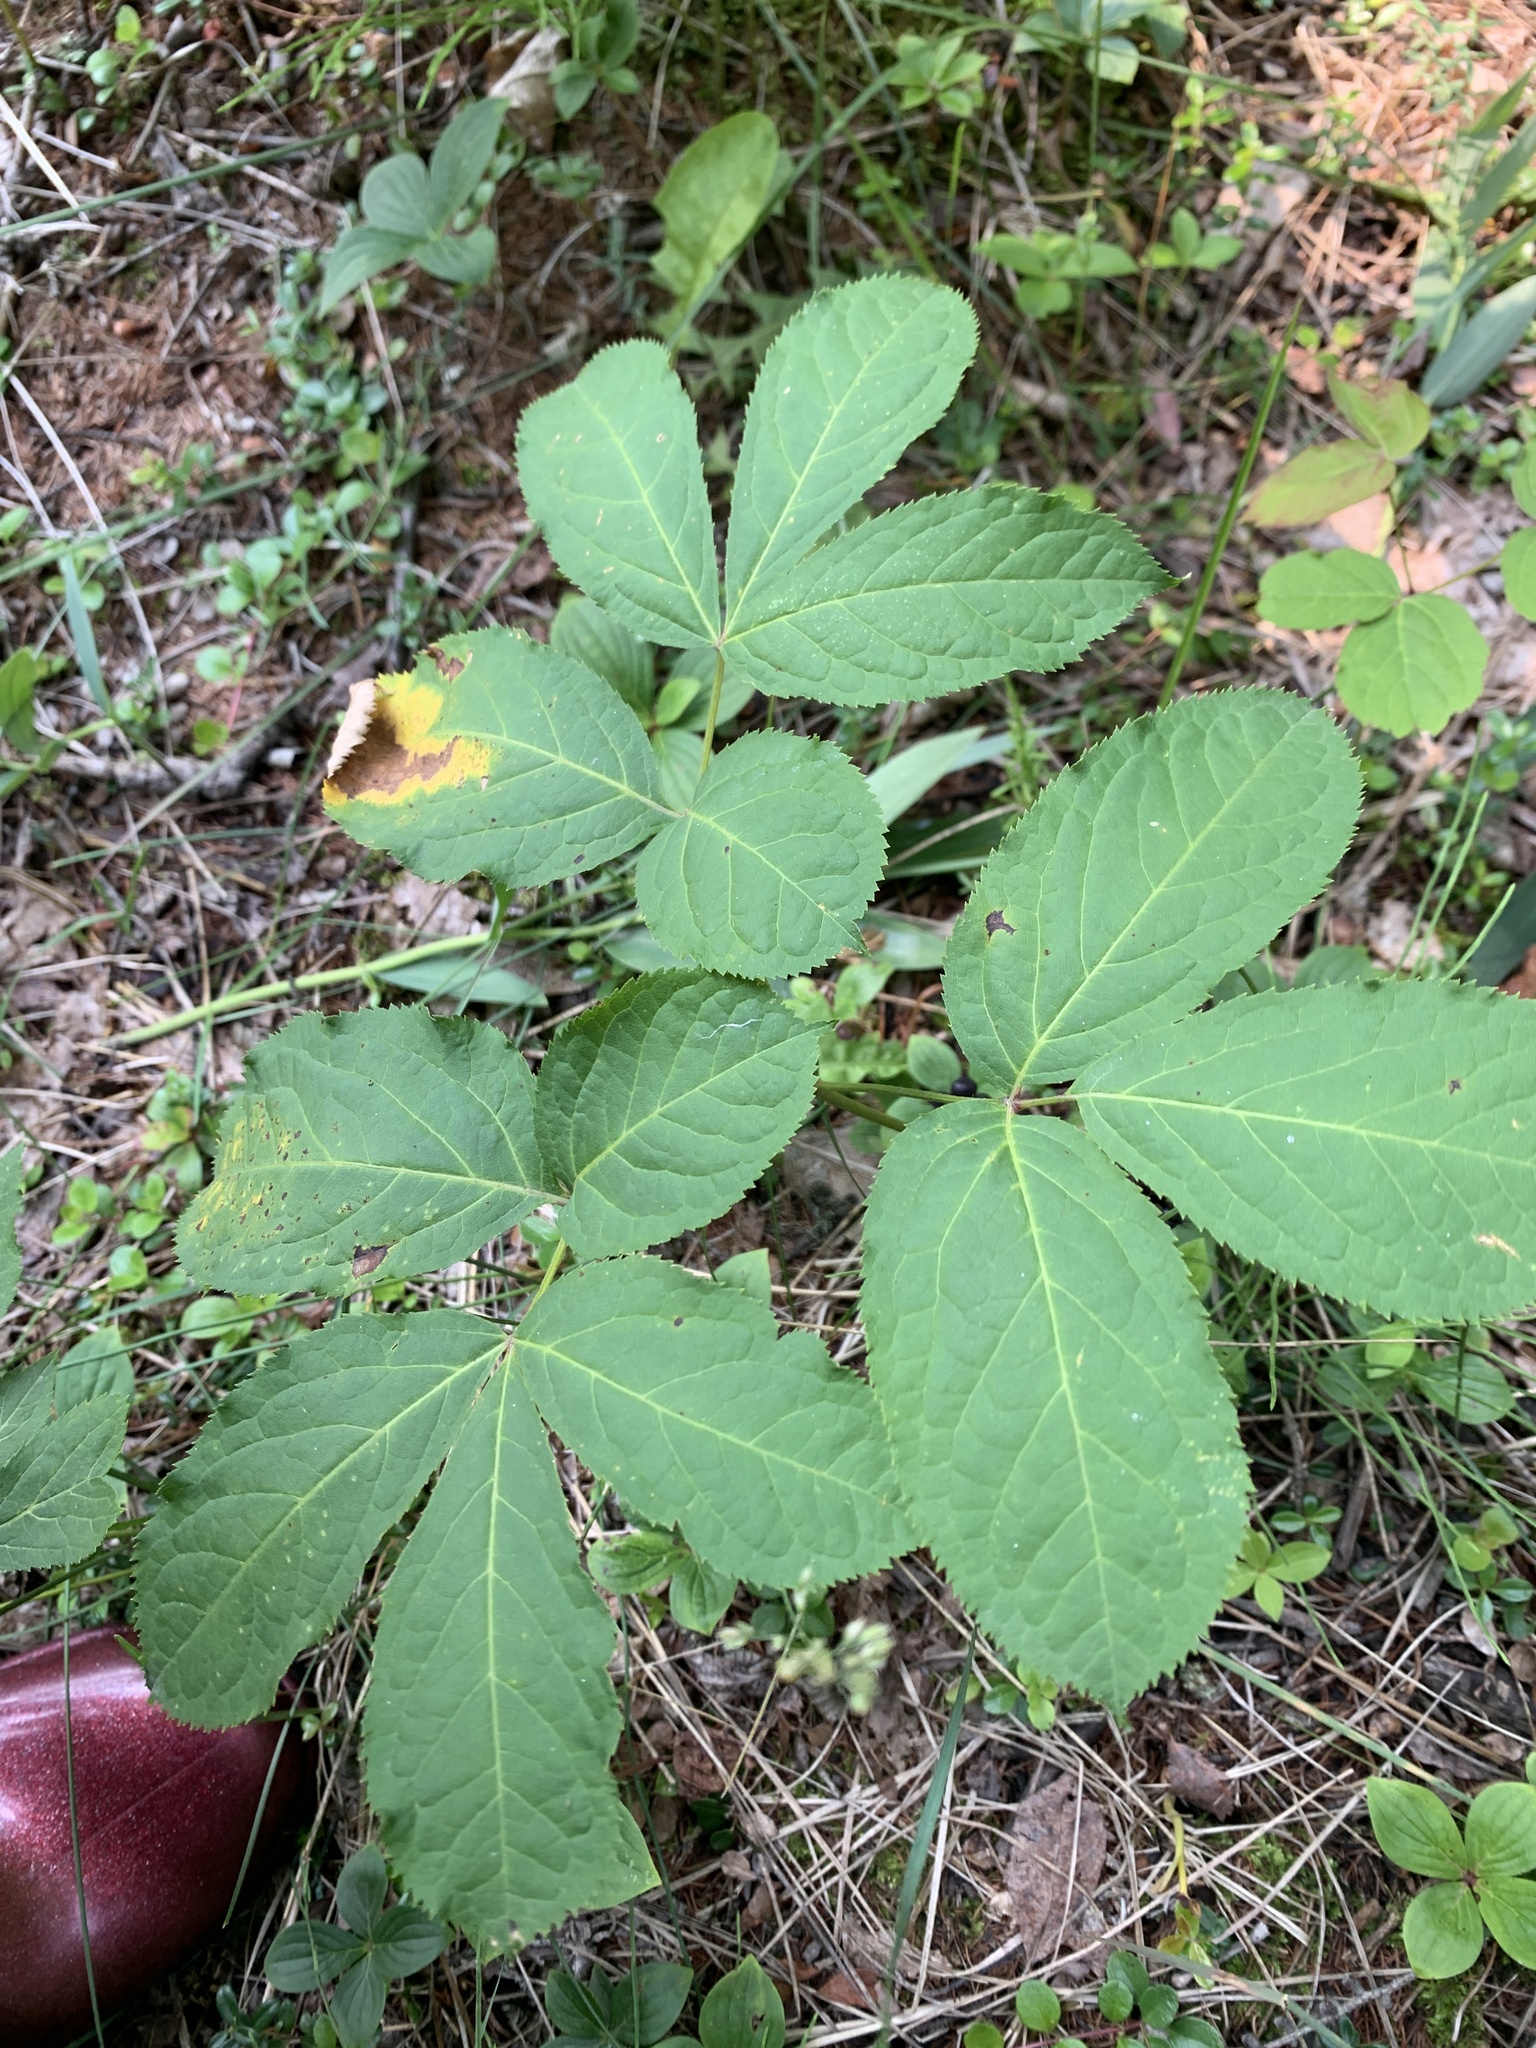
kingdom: Plantae
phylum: Tracheophyta
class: Magnoliopsida
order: Apiales
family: Araliaceae
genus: Aralia
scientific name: Aralia nudicaulis
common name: Wild sarsaparilla
